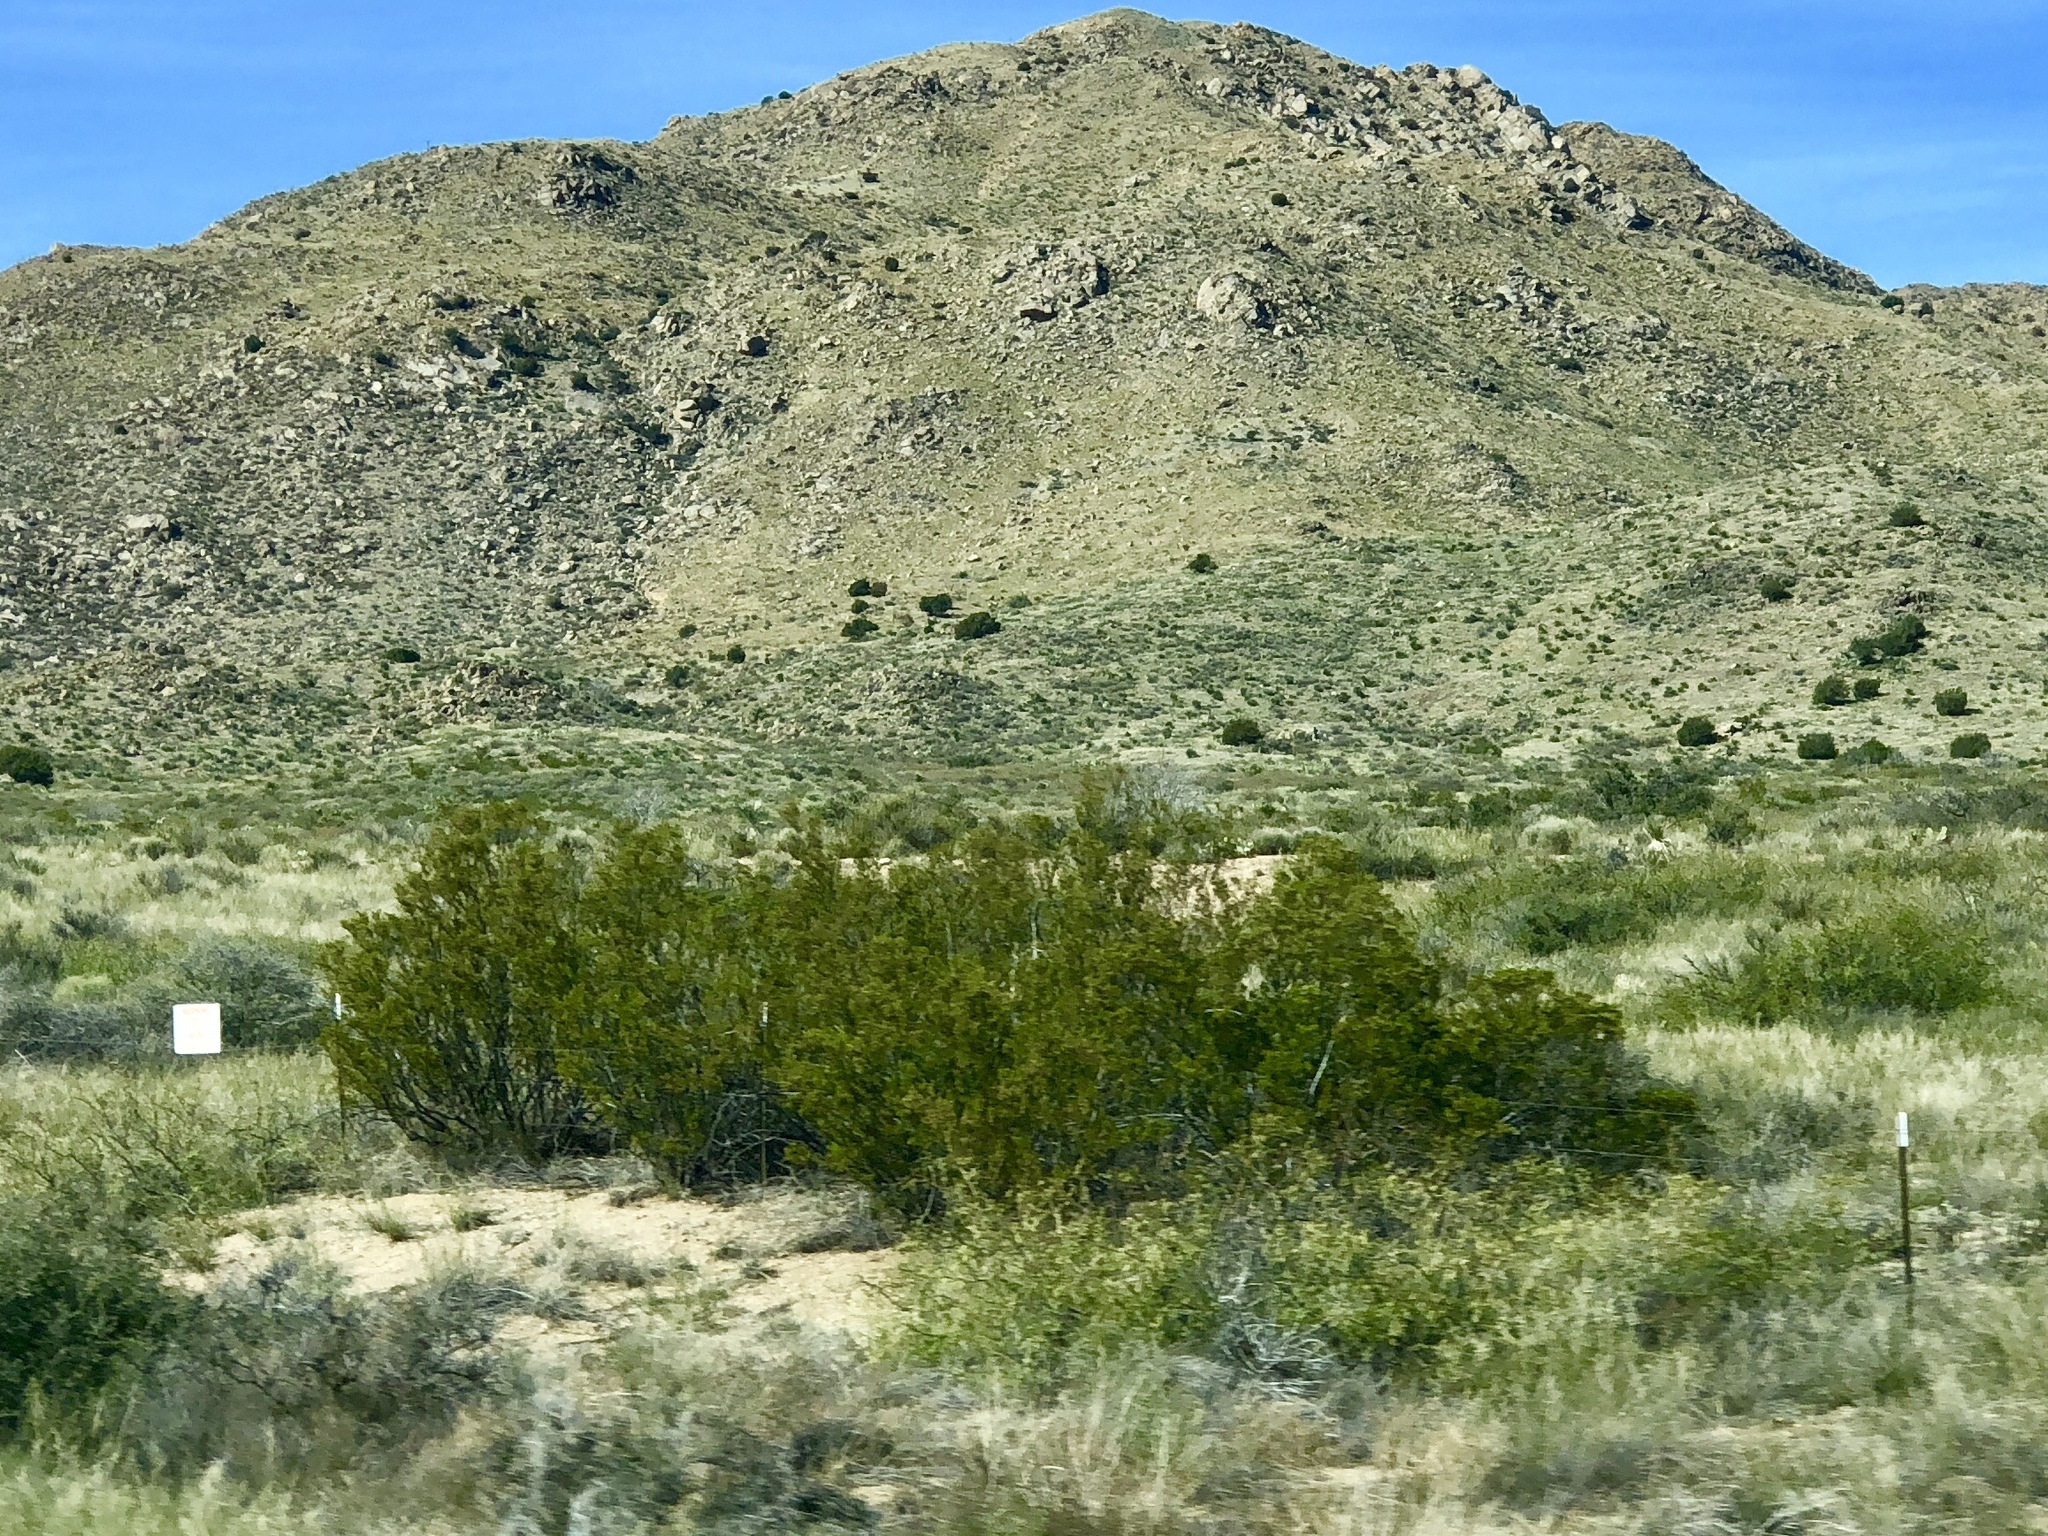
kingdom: Plantae
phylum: Tracheophyta
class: Magnoliopsida
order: Zygophyllales
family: Zygophyllaceae
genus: Larrea
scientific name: Larrea tridentata
